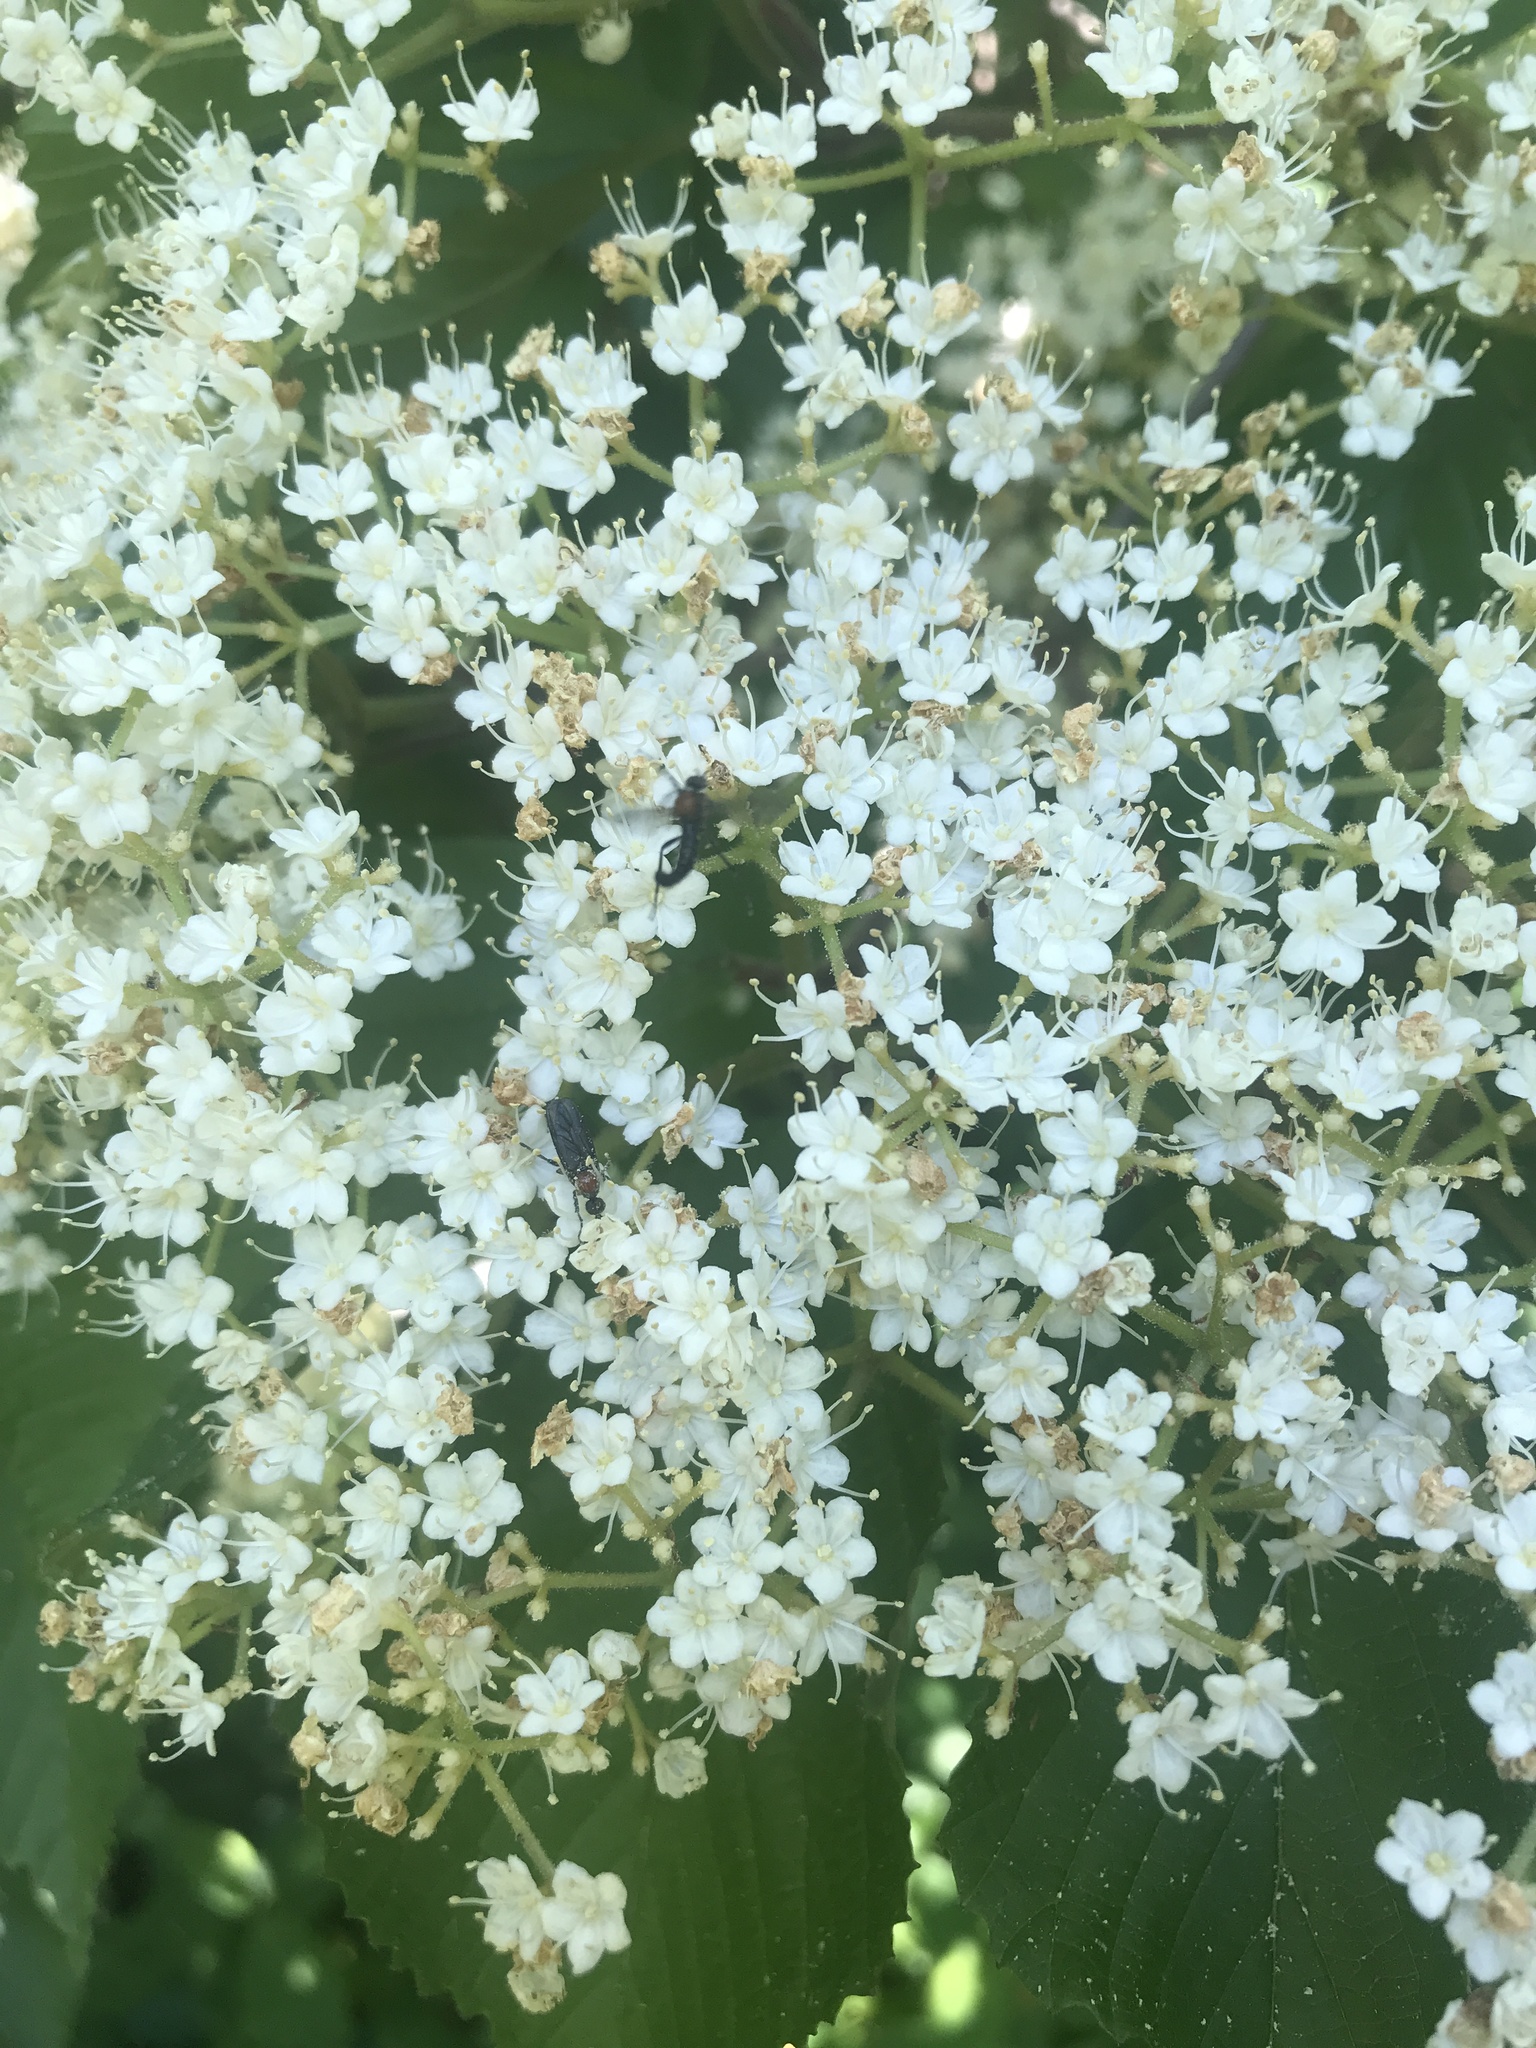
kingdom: Plantae
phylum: Tracheophyta
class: Magnoliopsida
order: Dipsacales
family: Viburnaceae
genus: Viburnum
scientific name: Viburnum dilatatum
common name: Linden arrowwood
